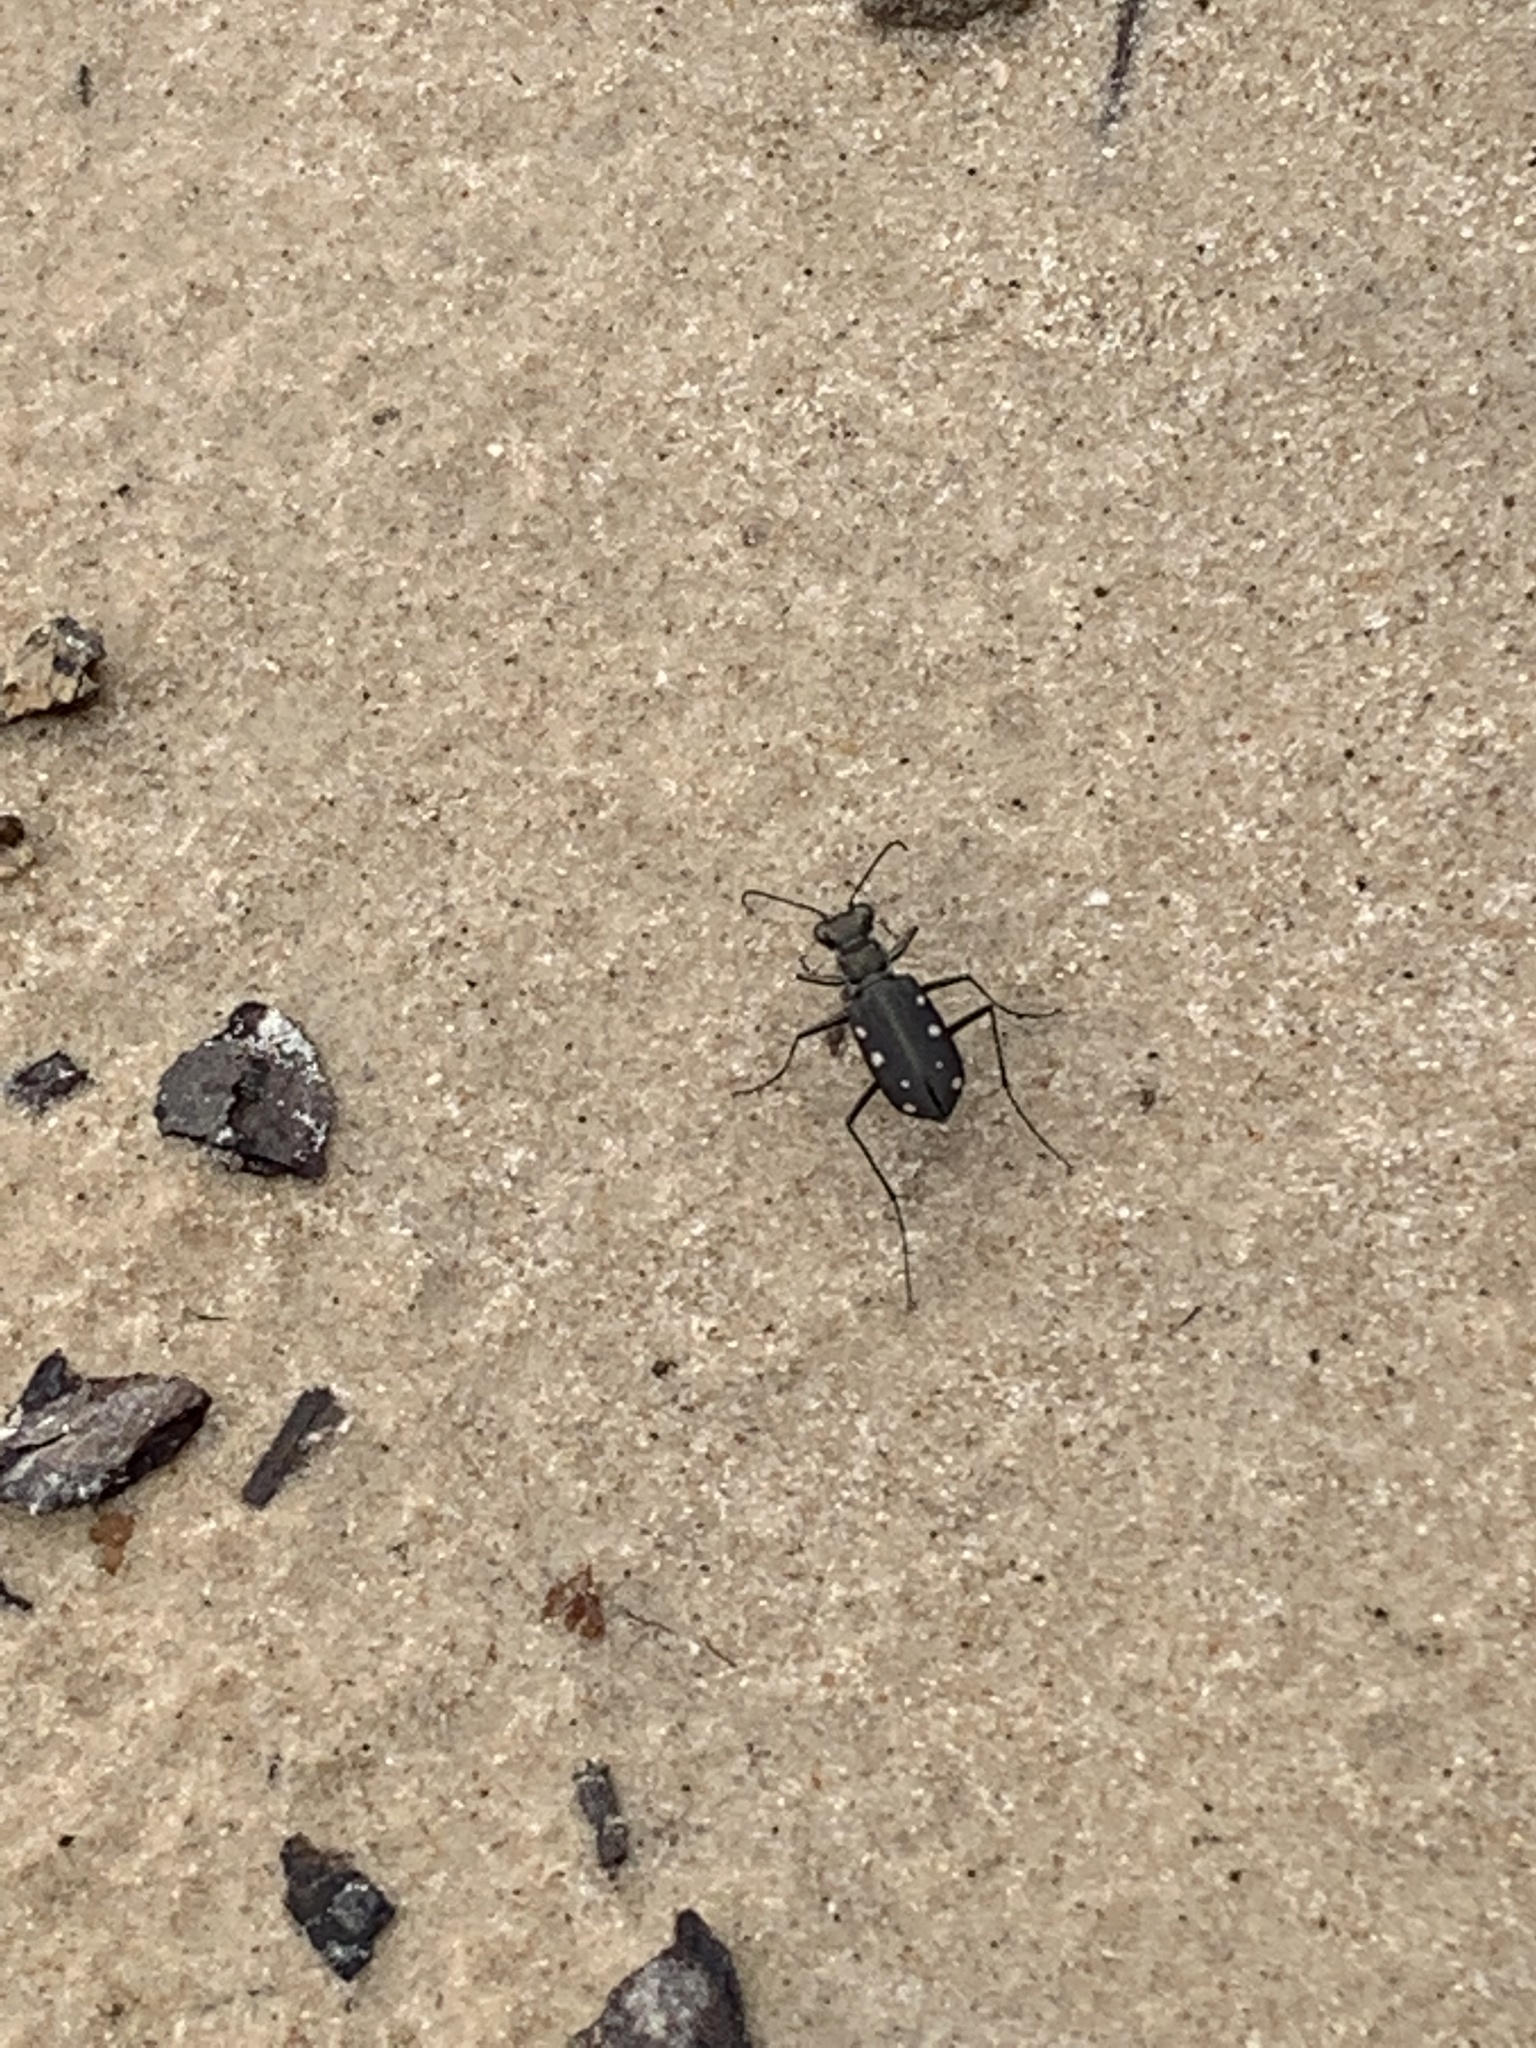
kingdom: Animalia
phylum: Arthropoda
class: Insecta
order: Coleoptera
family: Carabidae
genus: Cicindela
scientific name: Cicindela ocellata
